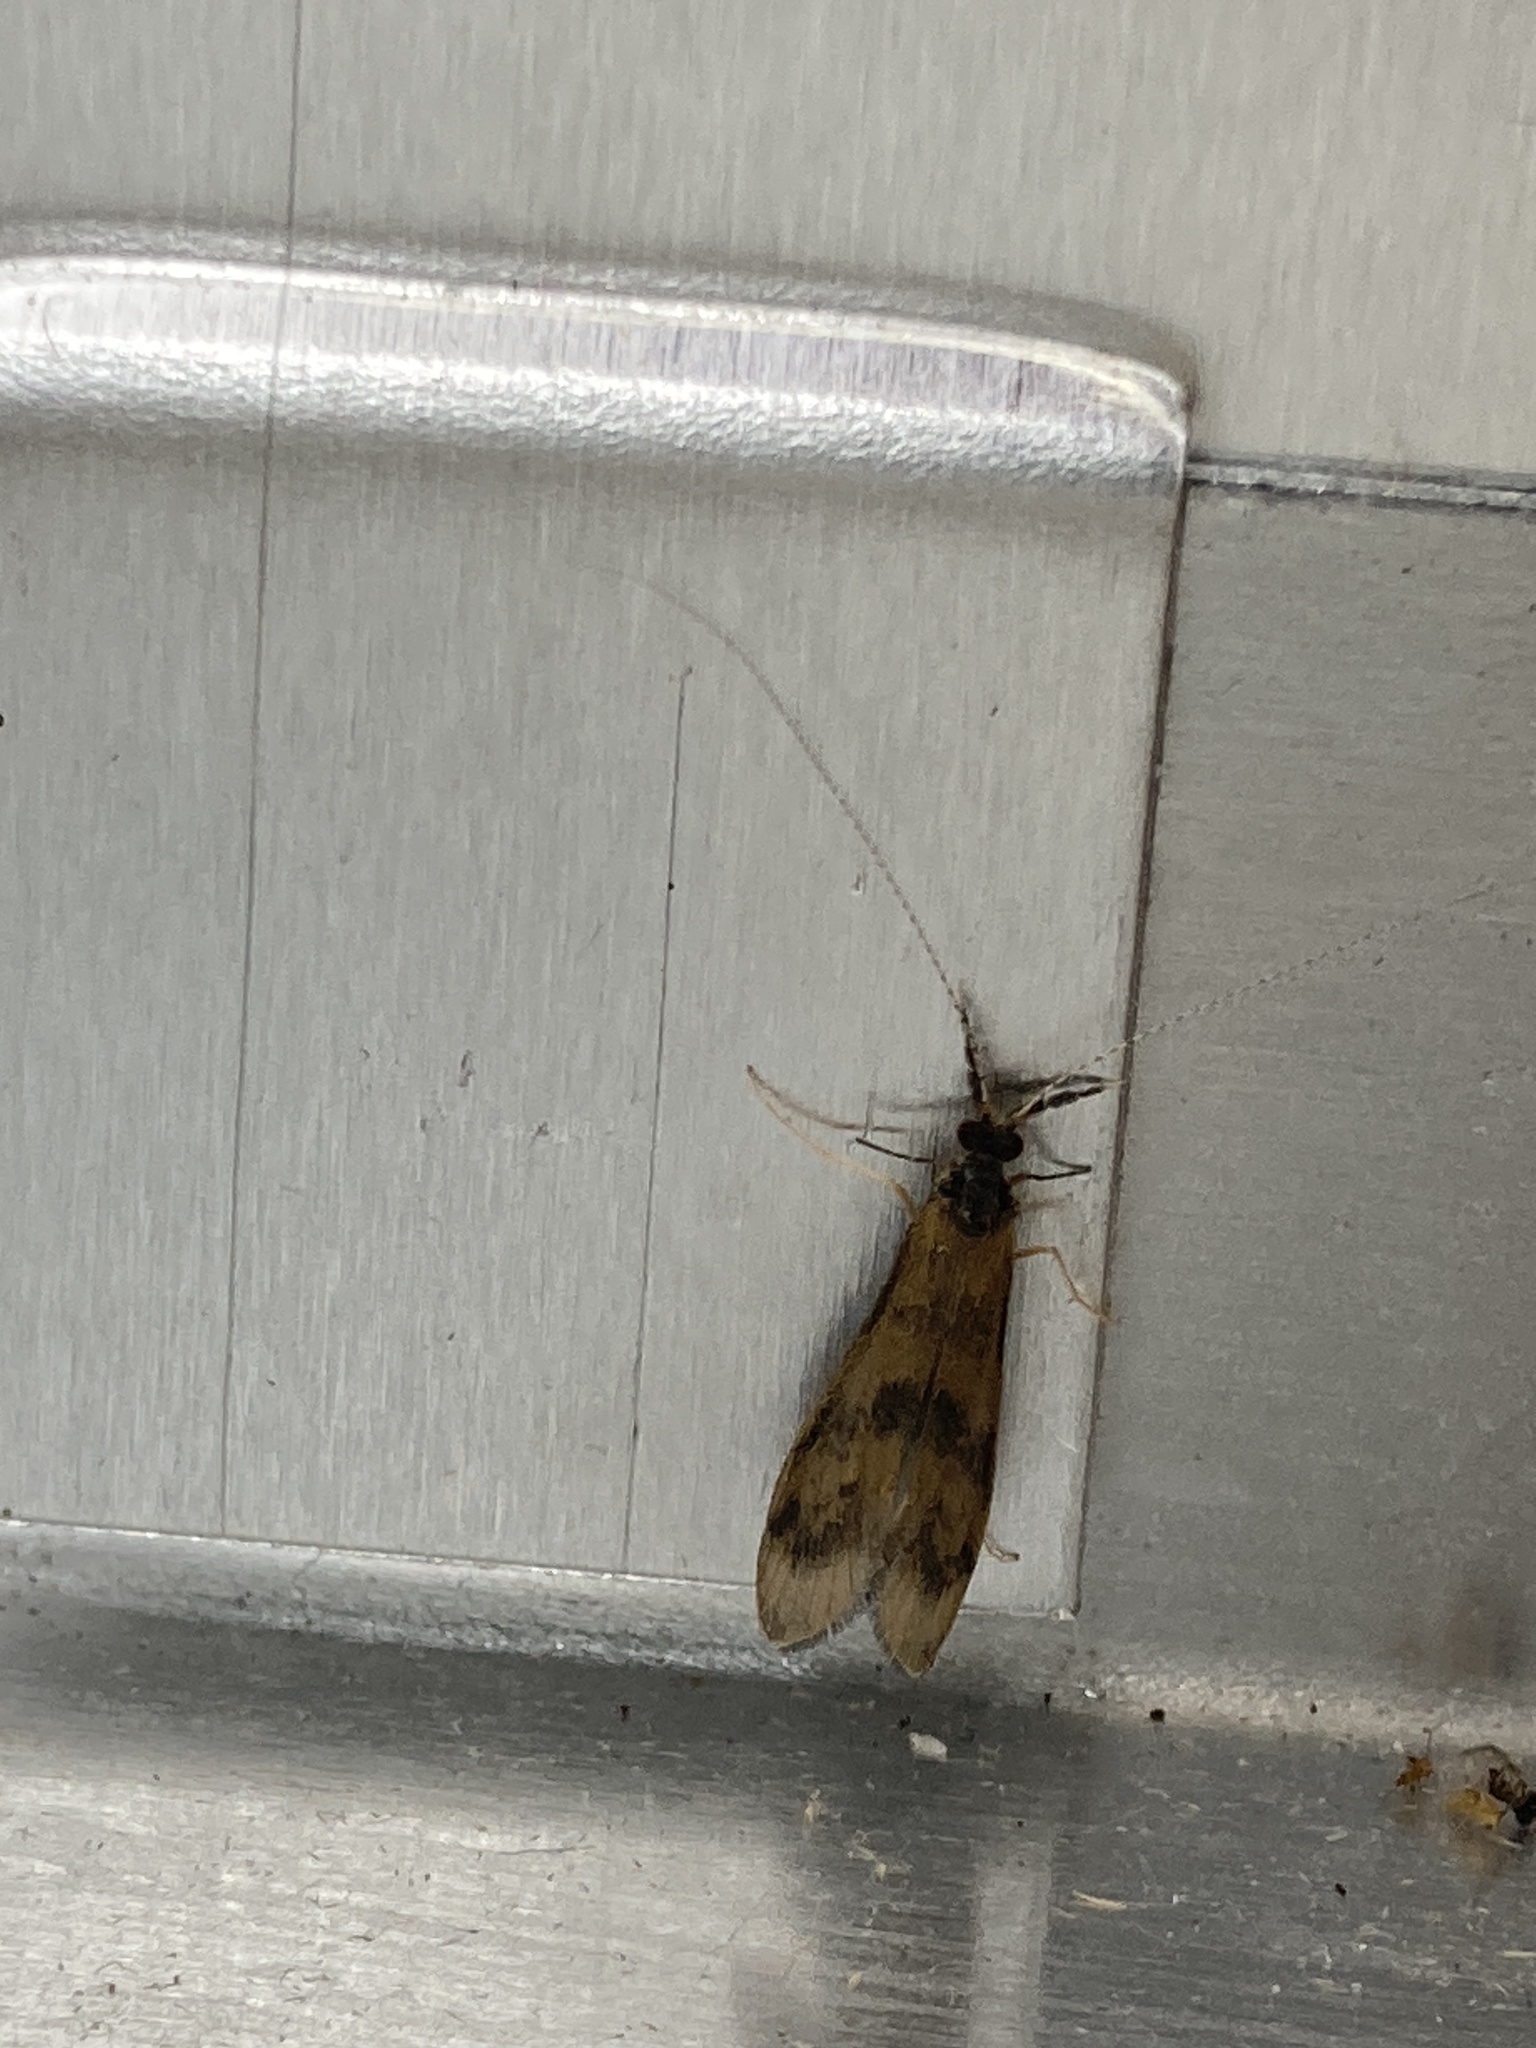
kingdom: Animalia
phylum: Arthropoda
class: Insecta
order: Trichoptera
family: Leptoceridae
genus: Mystacides
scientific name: Mystacides longicornis
